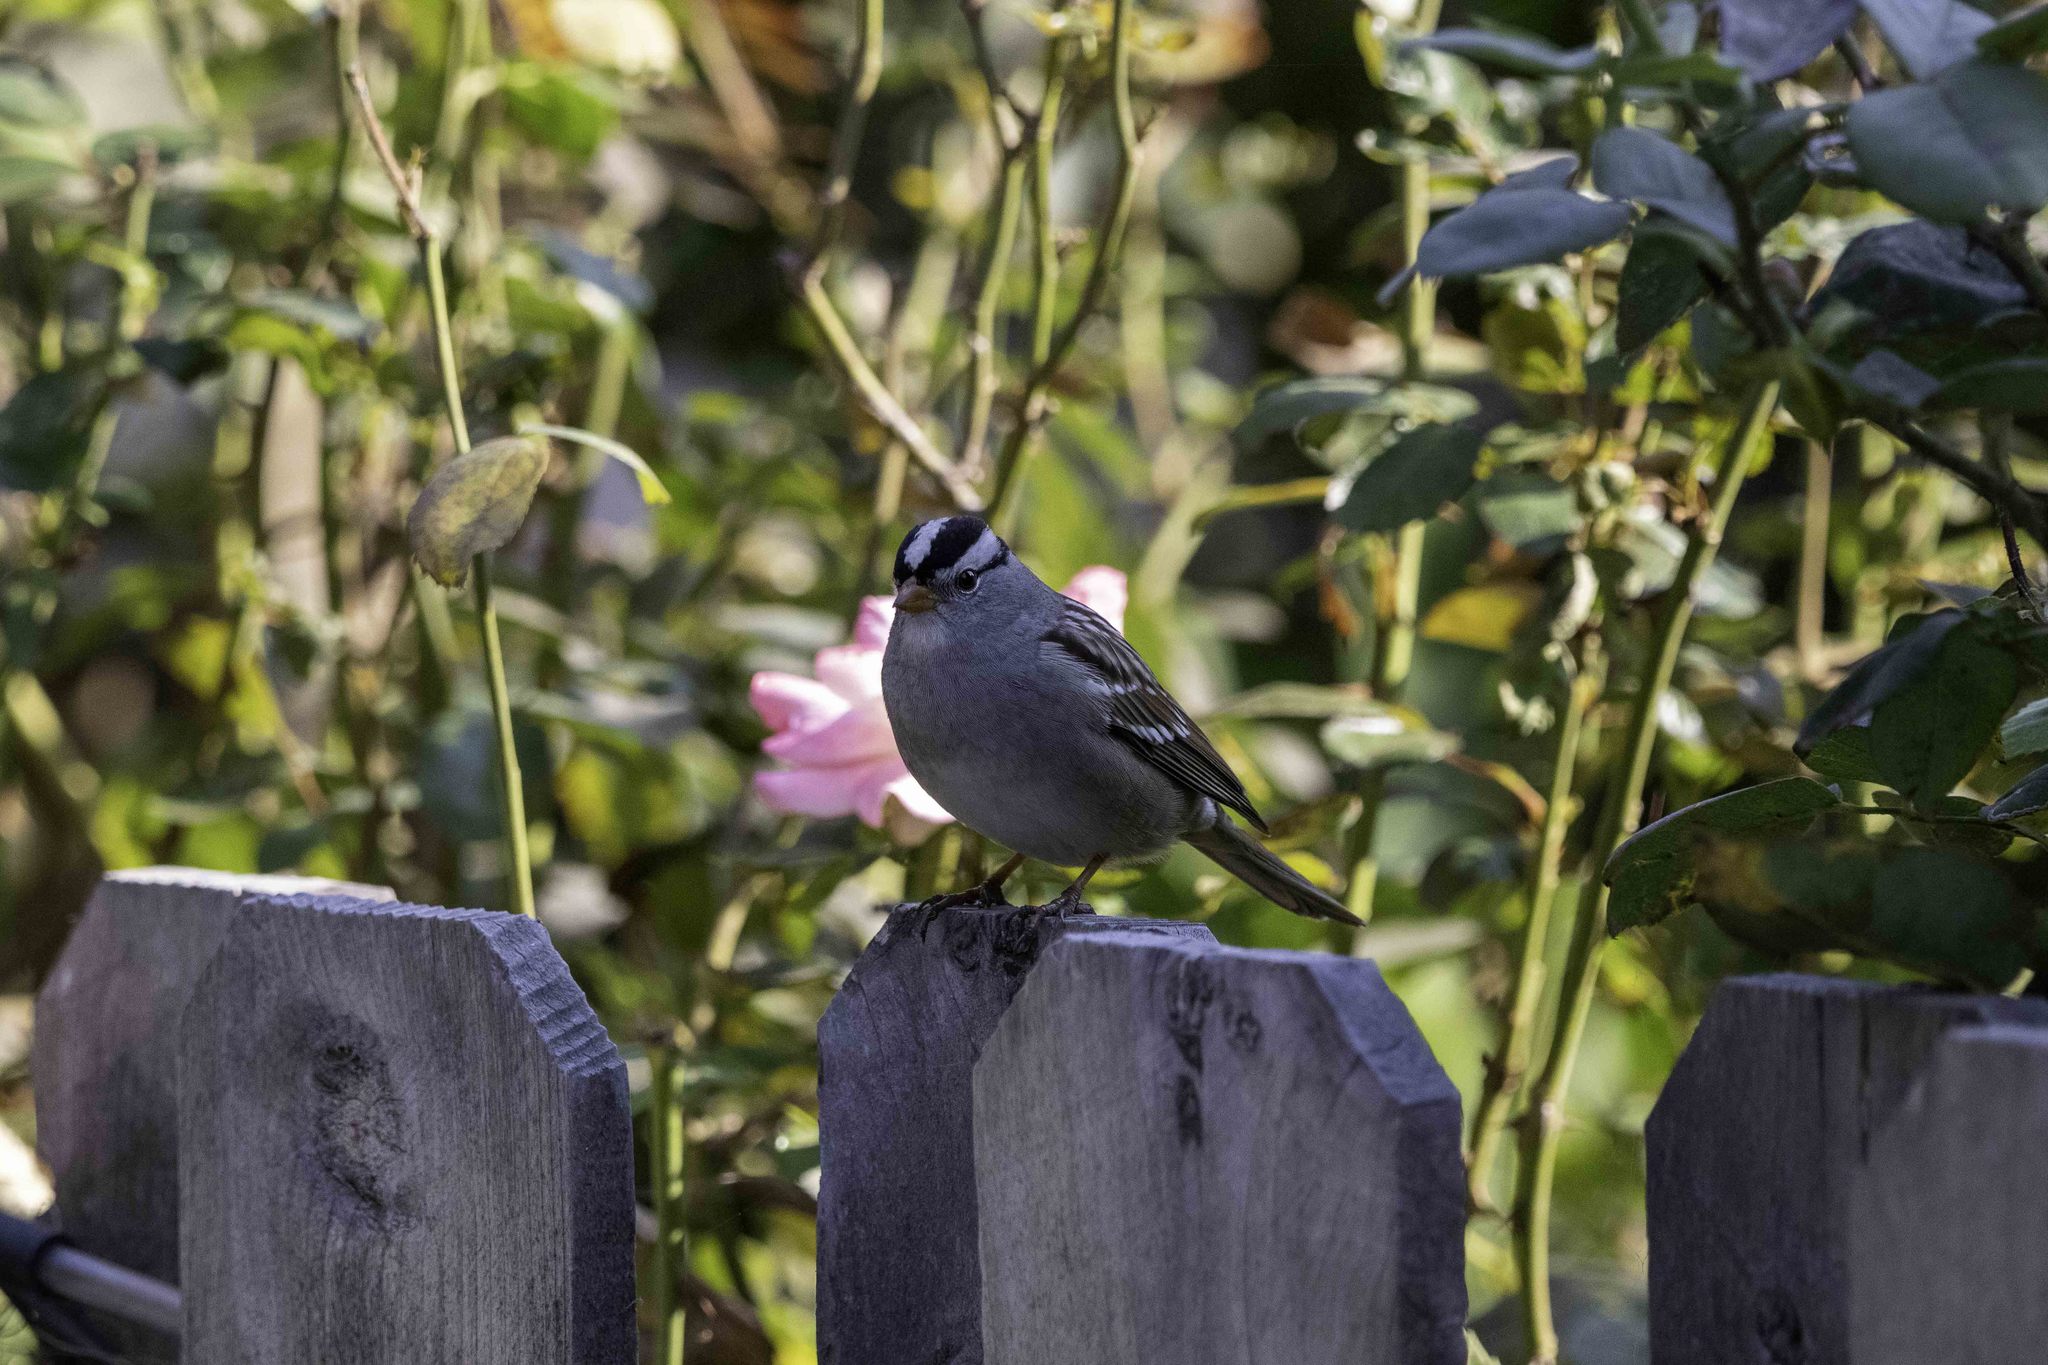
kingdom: Animalia
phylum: Chordata
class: Aves
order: Passeriformes
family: Passerellidae
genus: Zonotrichia
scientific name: Zonotrichia leucophrys
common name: White-crowned sparrow
